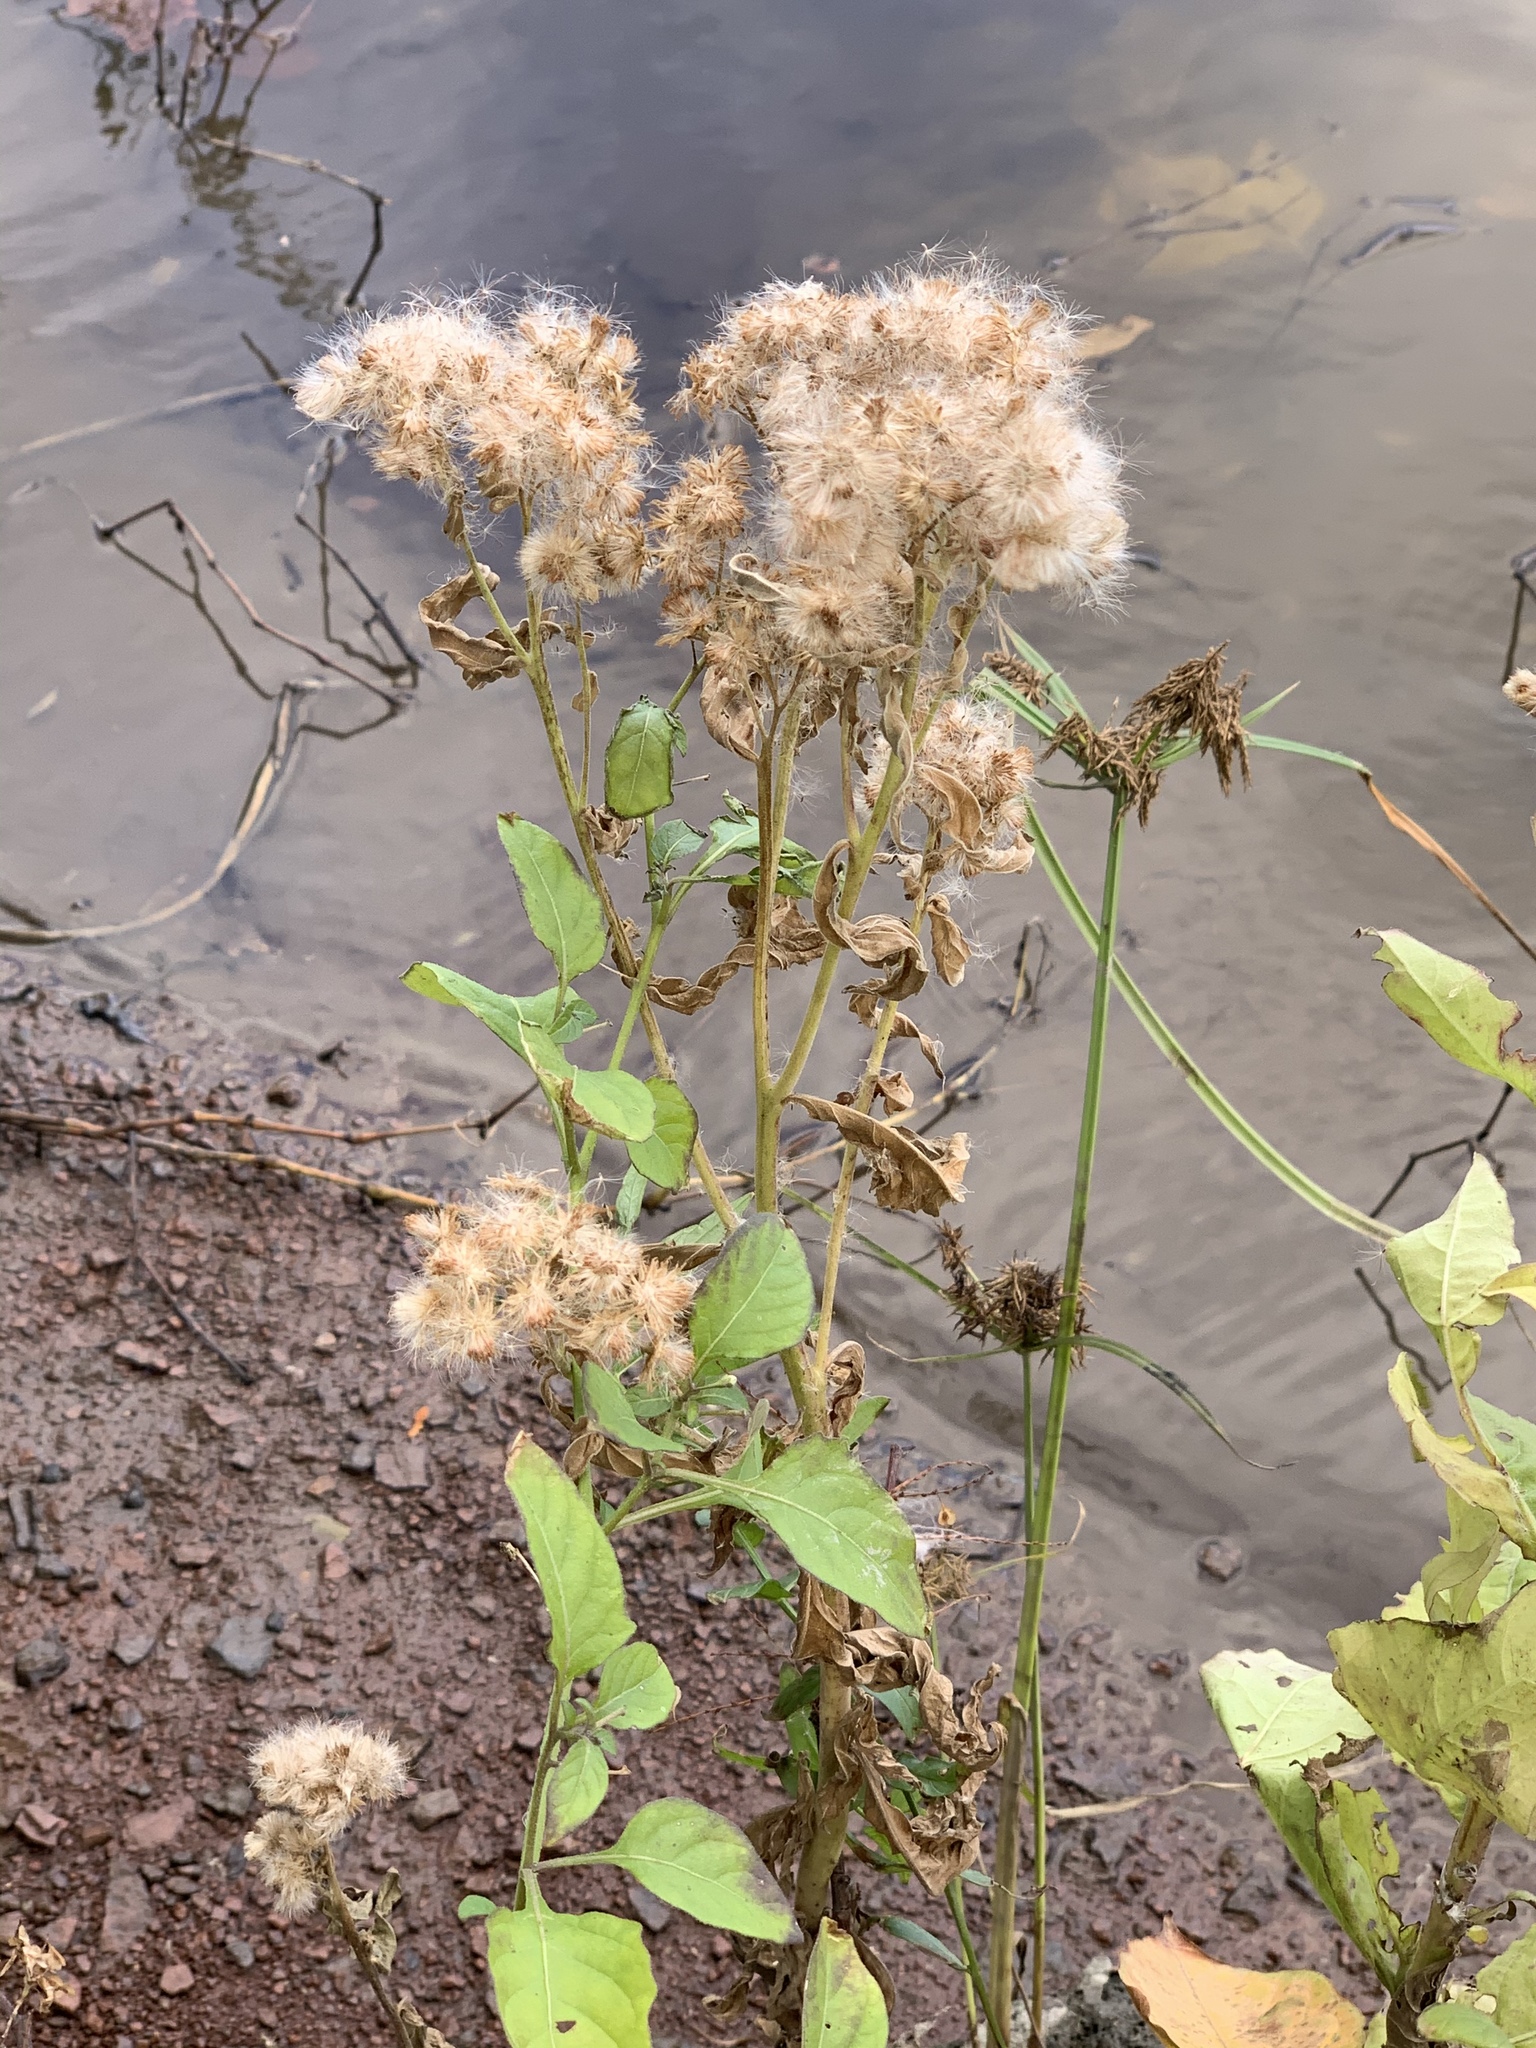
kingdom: Plantae
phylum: Tracheophyta
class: Magnoliopsida
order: Asterales
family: Asteraceae
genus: Pluchea
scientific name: Pluchea odorata
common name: Saltmarsh fleabane
